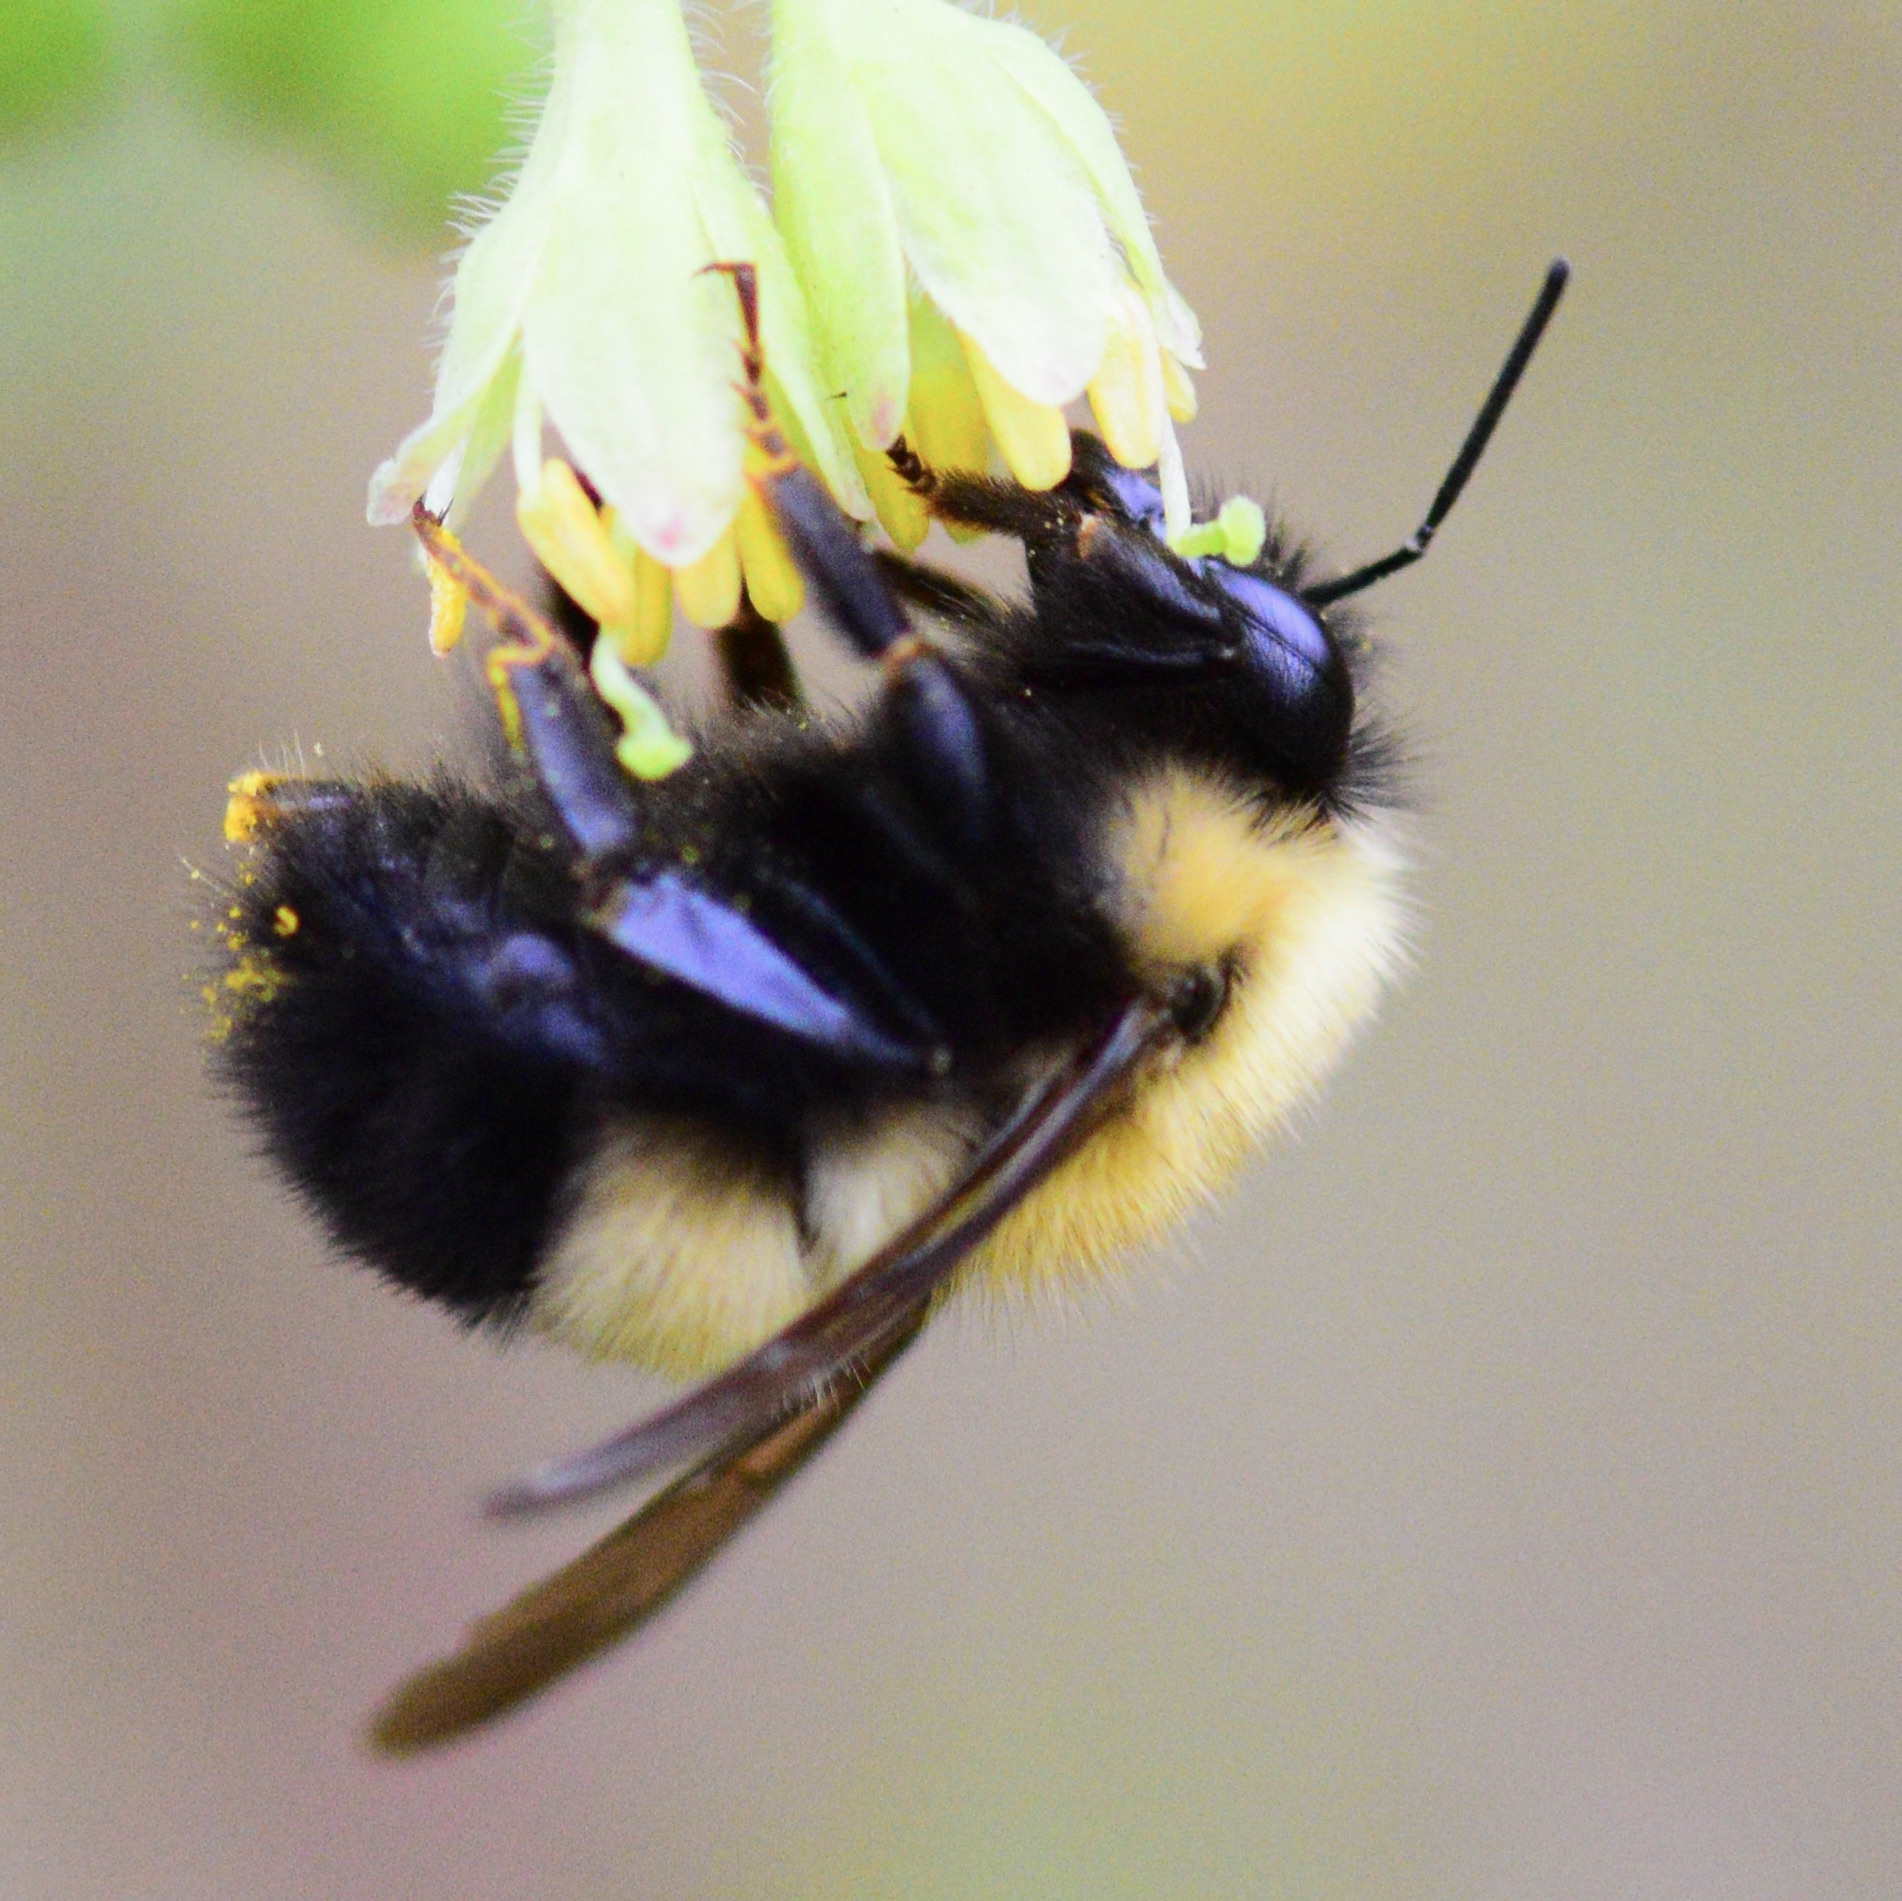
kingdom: Animalia
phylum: Arthropoda
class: Insecta
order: Hymenoptera
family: Apidae
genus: Bombus
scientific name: Bombus perplexus
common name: Confusing bumble bee
